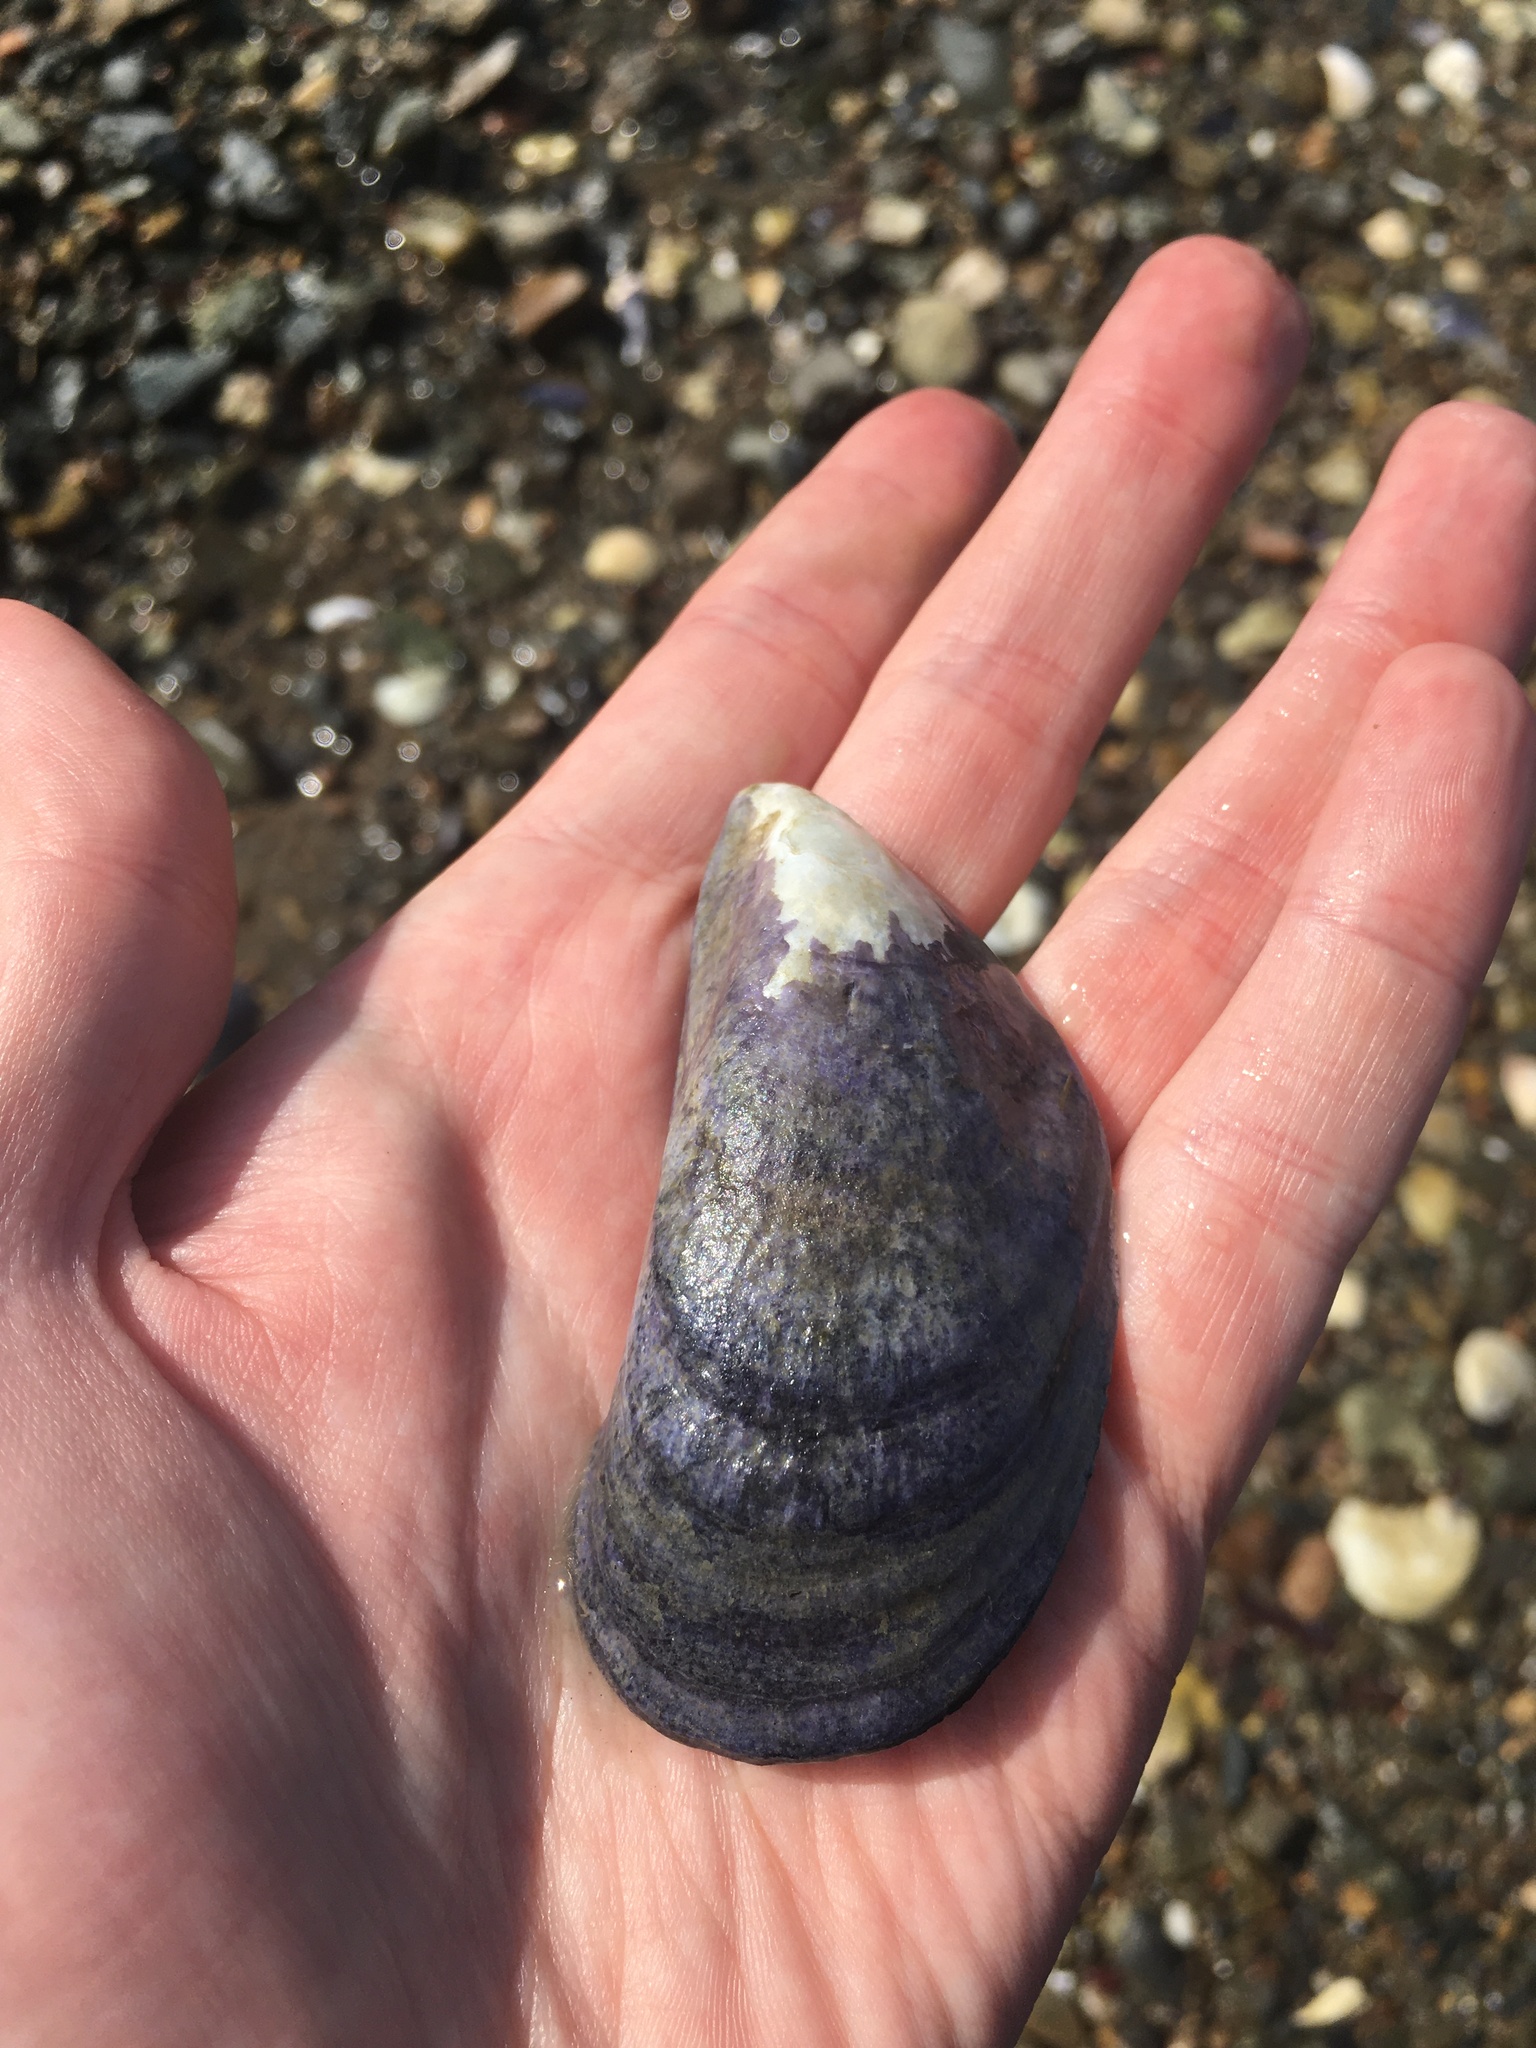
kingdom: Animalia
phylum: Mollusca
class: Bivalvia
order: Mytilida
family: Mytilidae
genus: Mytilus
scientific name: Mytilus edulis
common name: Blue mussel
